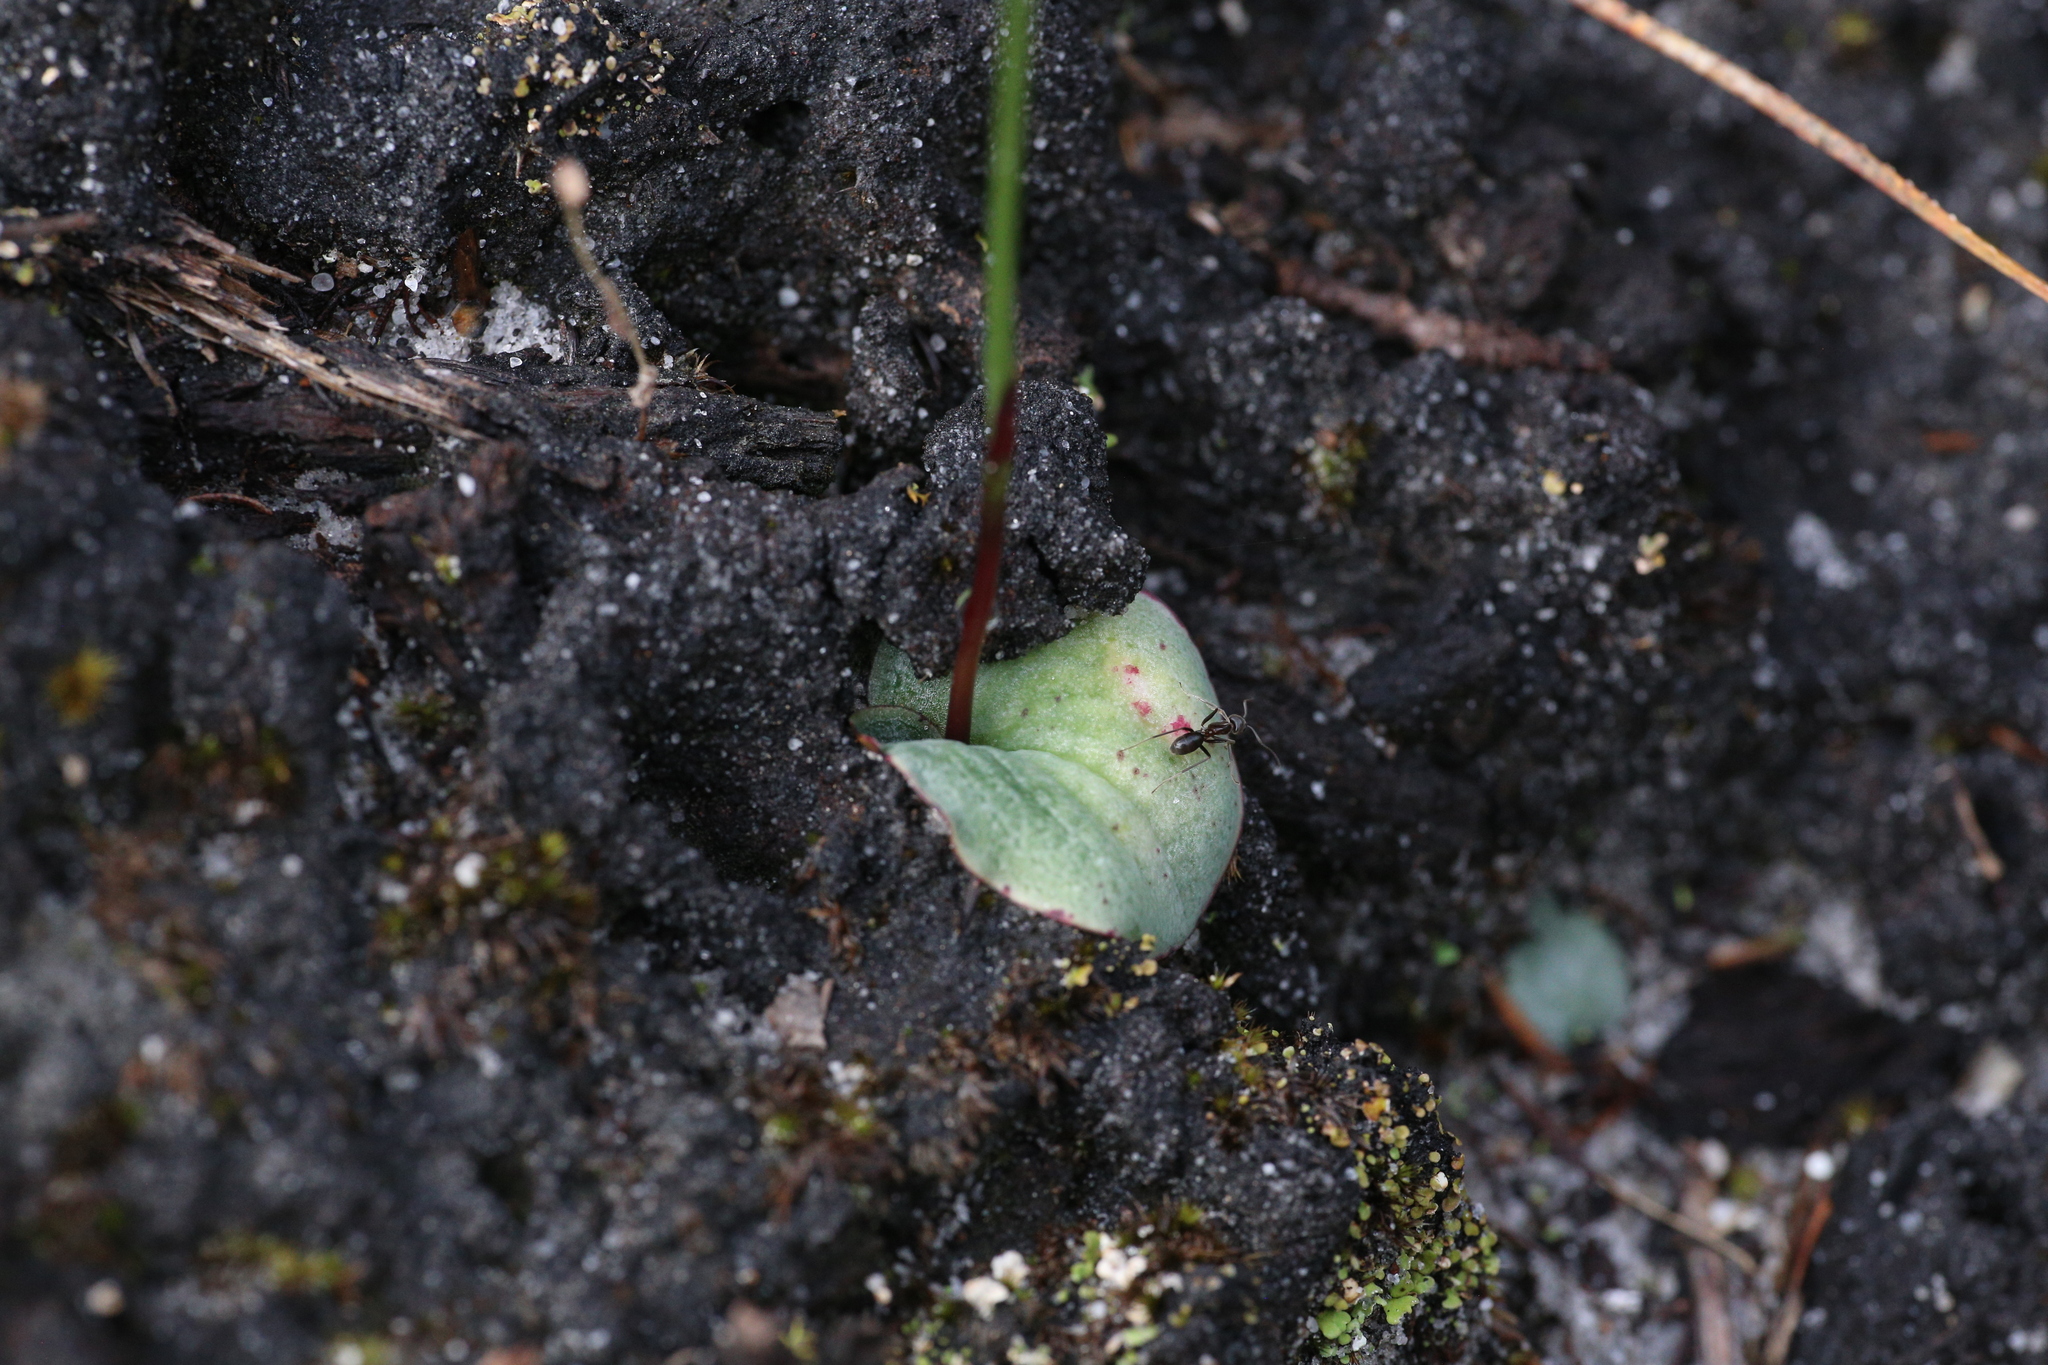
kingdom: Plantae
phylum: Tracheophyta
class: Liliopsida
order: Asparagales
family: Orchidaceae
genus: Drakaea
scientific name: Drakaea livida
